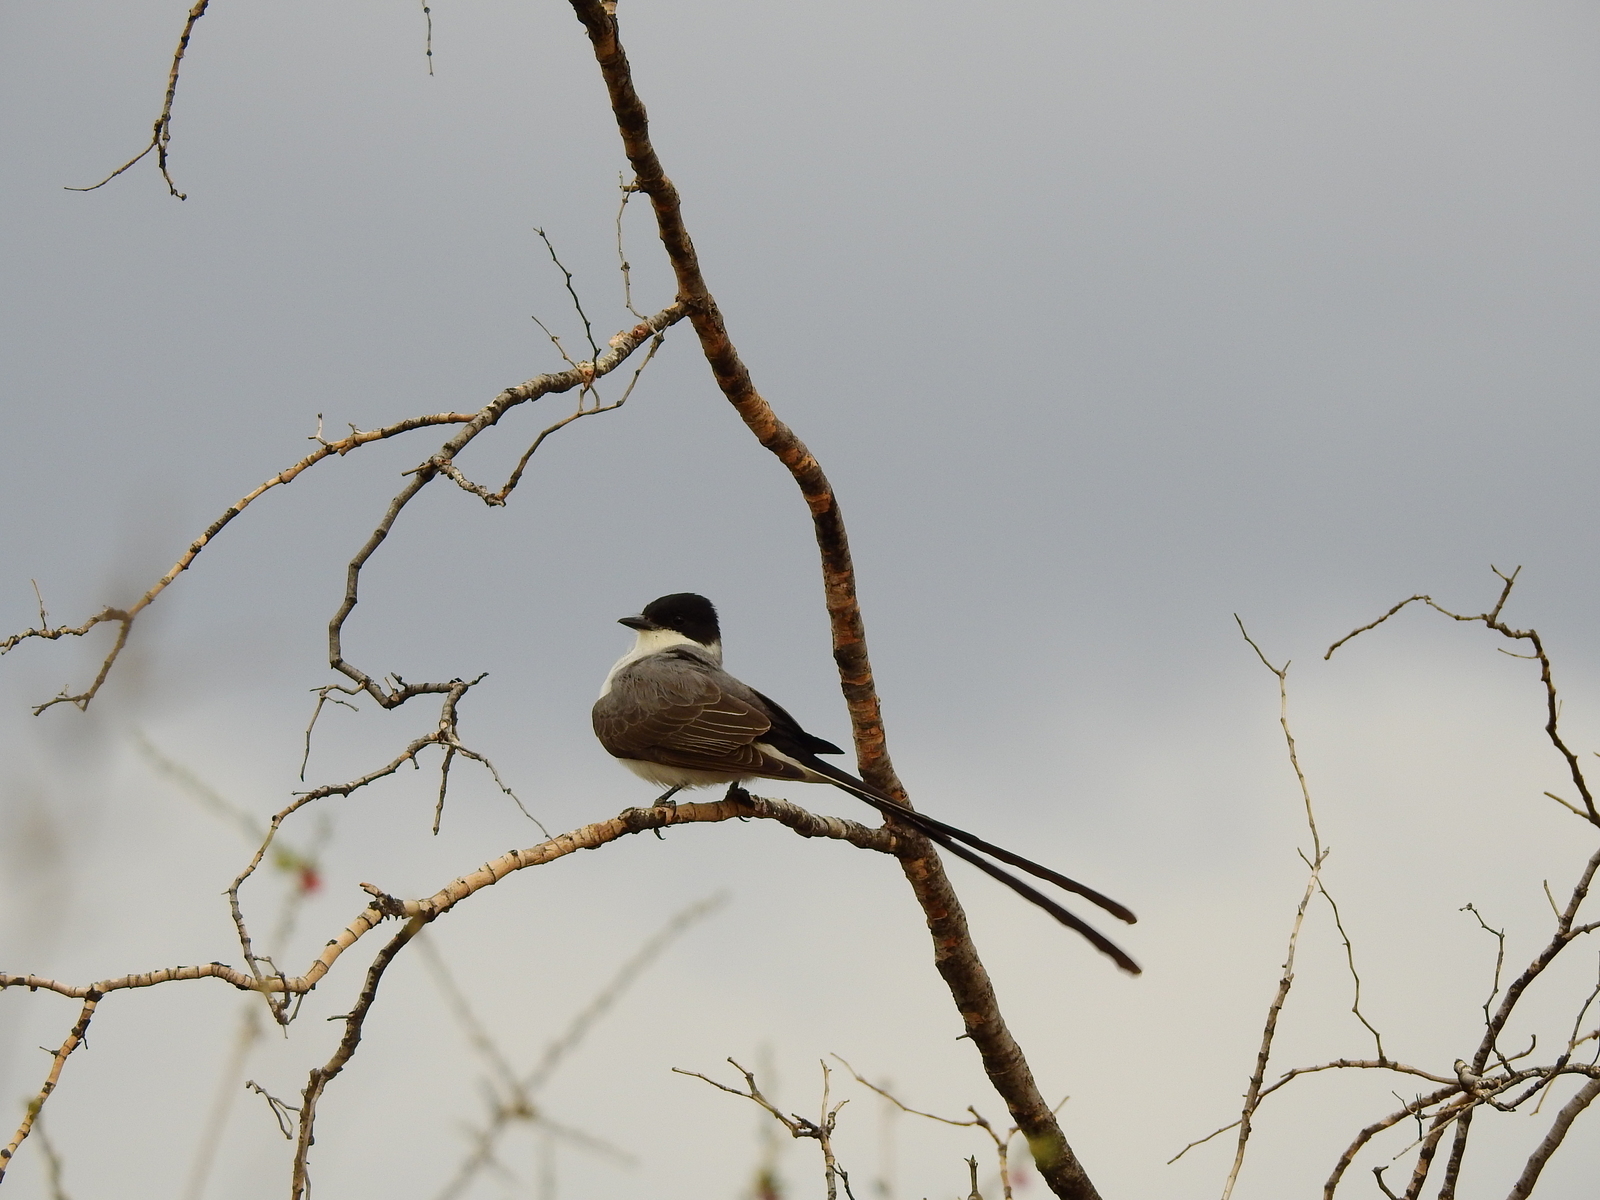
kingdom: Animalia
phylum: Chordata
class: Aves
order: Passeriformes
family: Tyrannidae
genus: Tyrannus
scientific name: Tyrannus savana
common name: Fork-tailed flycatcher
